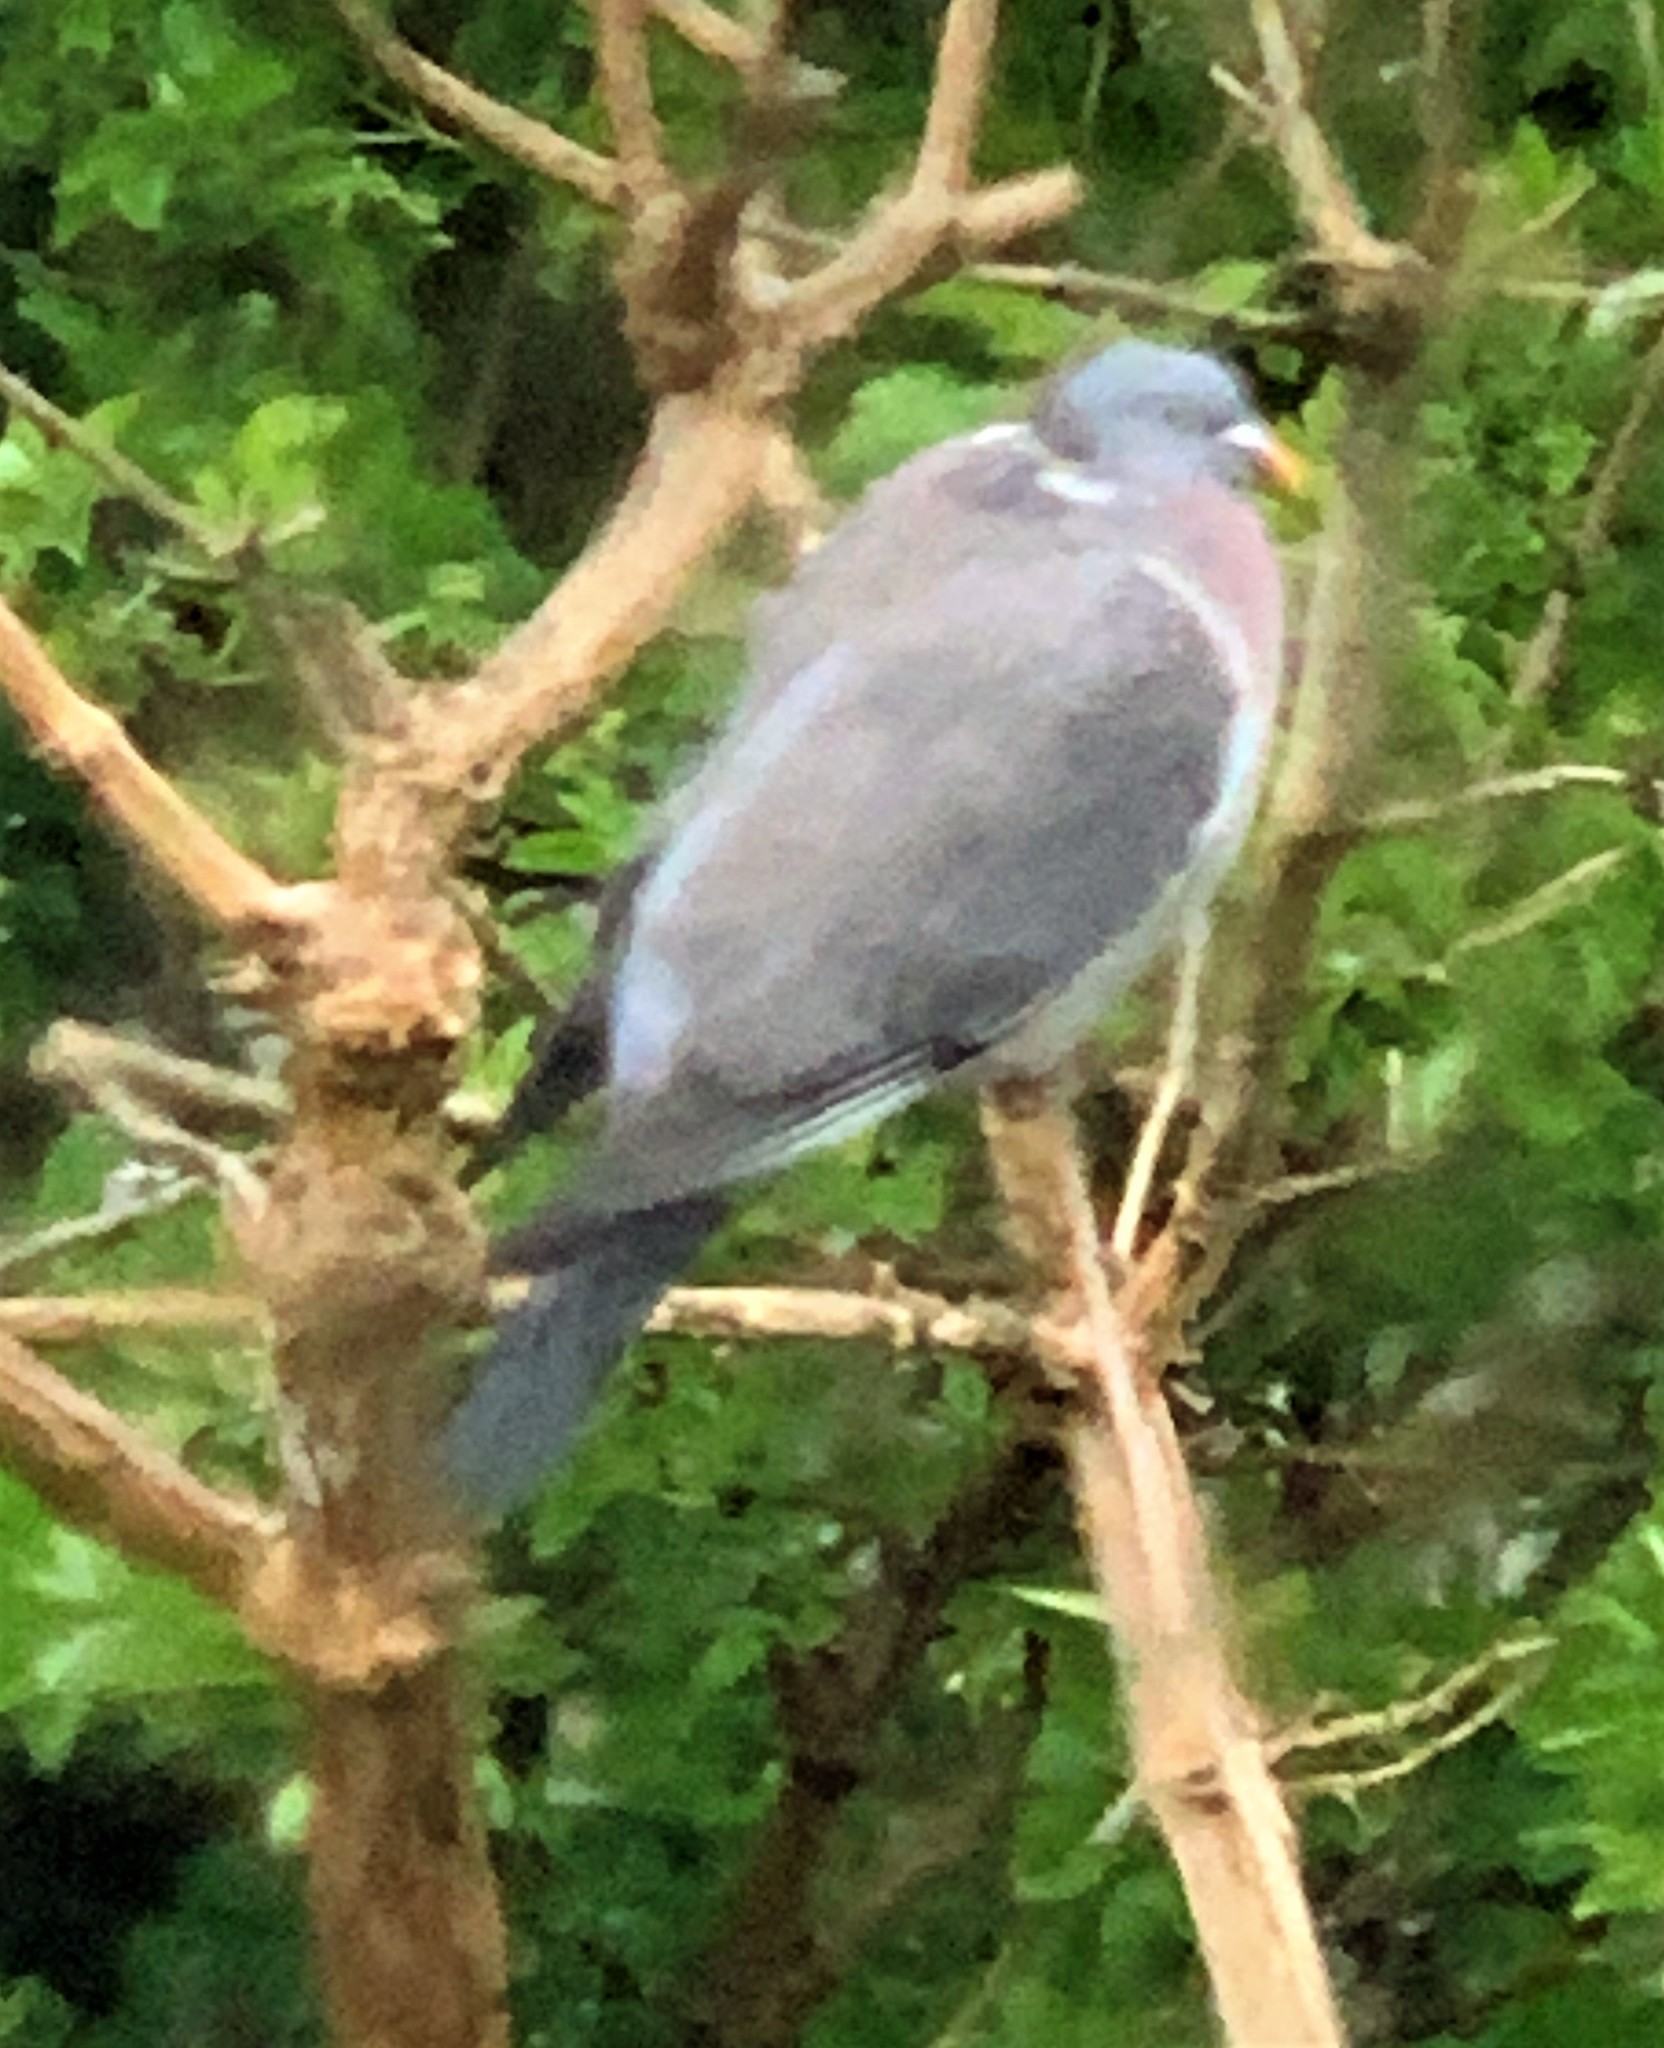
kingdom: Animalia
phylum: Chordata
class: Aves
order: Columbiformes
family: Columbidae
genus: Columba
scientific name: Columba palumbus
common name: Common wood pigeon
